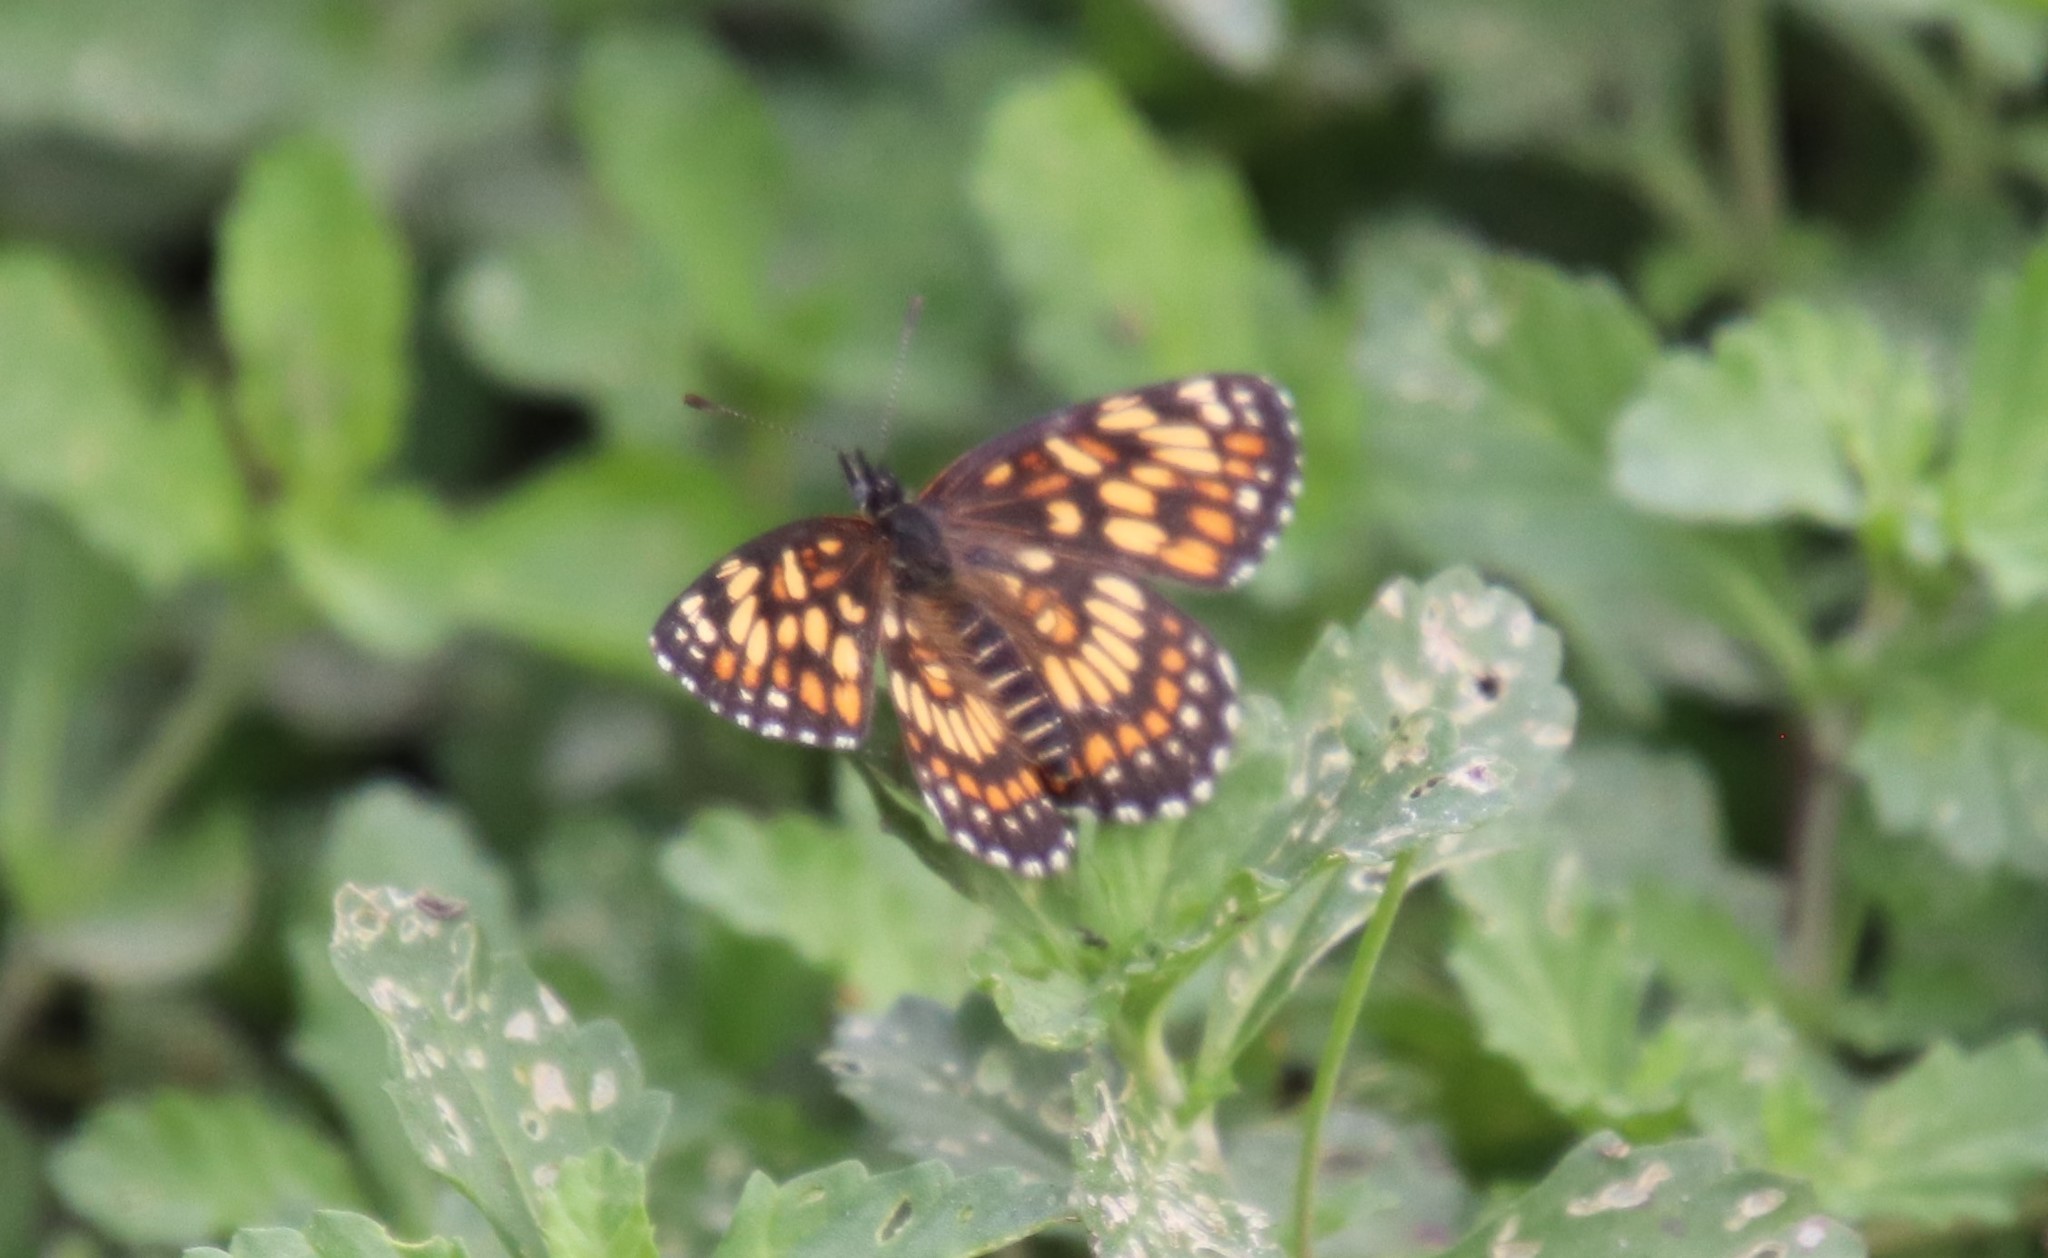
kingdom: Animalia
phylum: Arthropoda
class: Insecta
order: Lepidoptera
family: Nymphalidae
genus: Thessalia
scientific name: Thessalia theona
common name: Nymphalid moth
